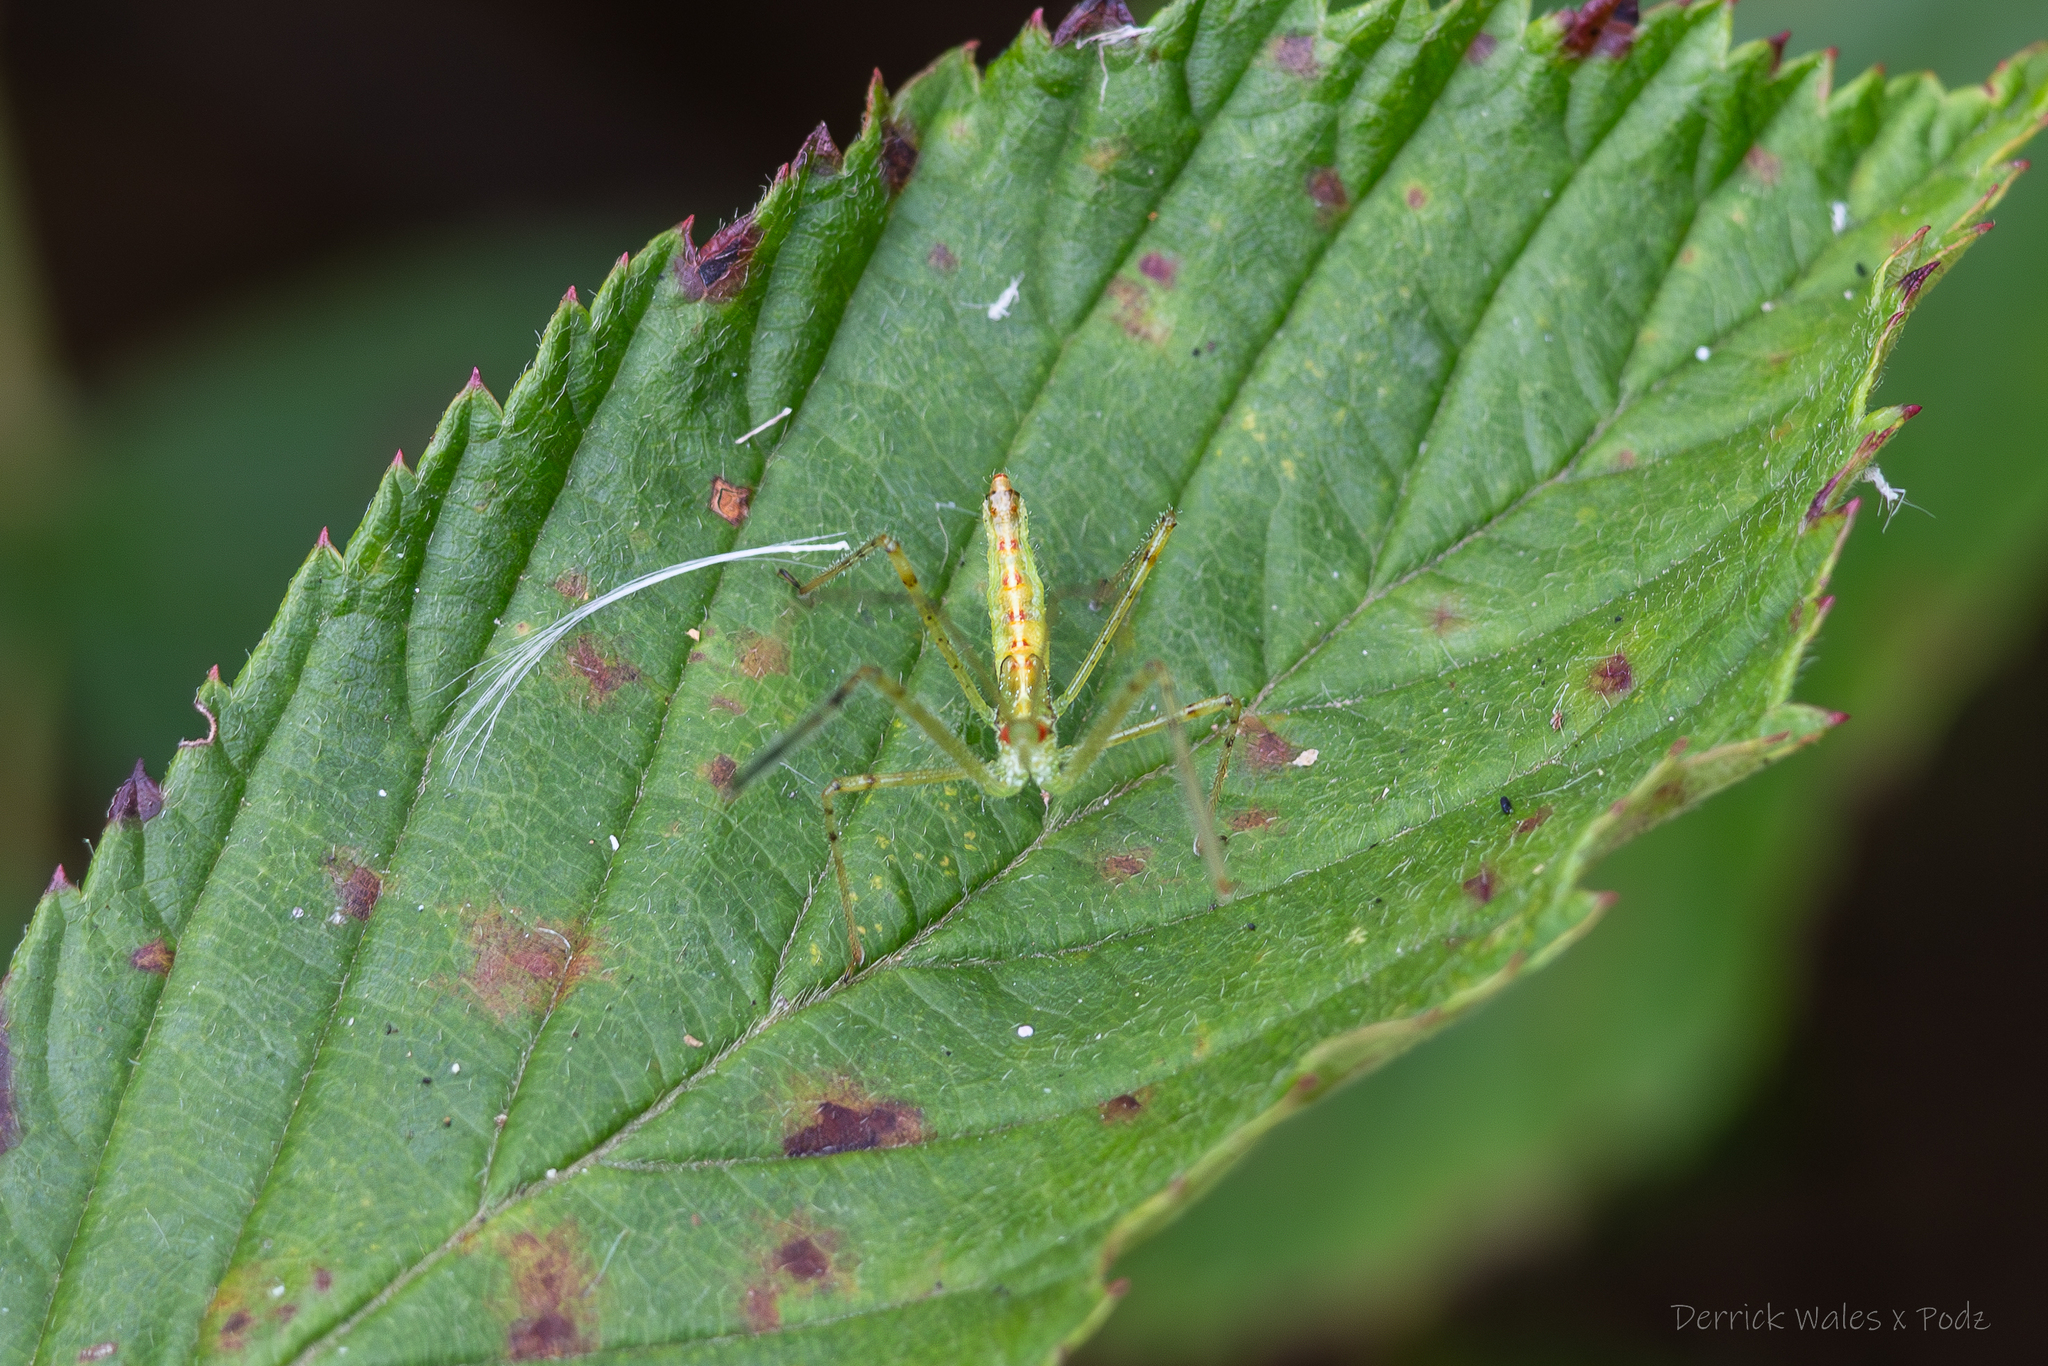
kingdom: Animalia
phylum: Arthropoda
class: Insecta
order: Hemiptera
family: Reduviidae
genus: Zelus
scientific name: Zelus luridus
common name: Pale green assassin bug
